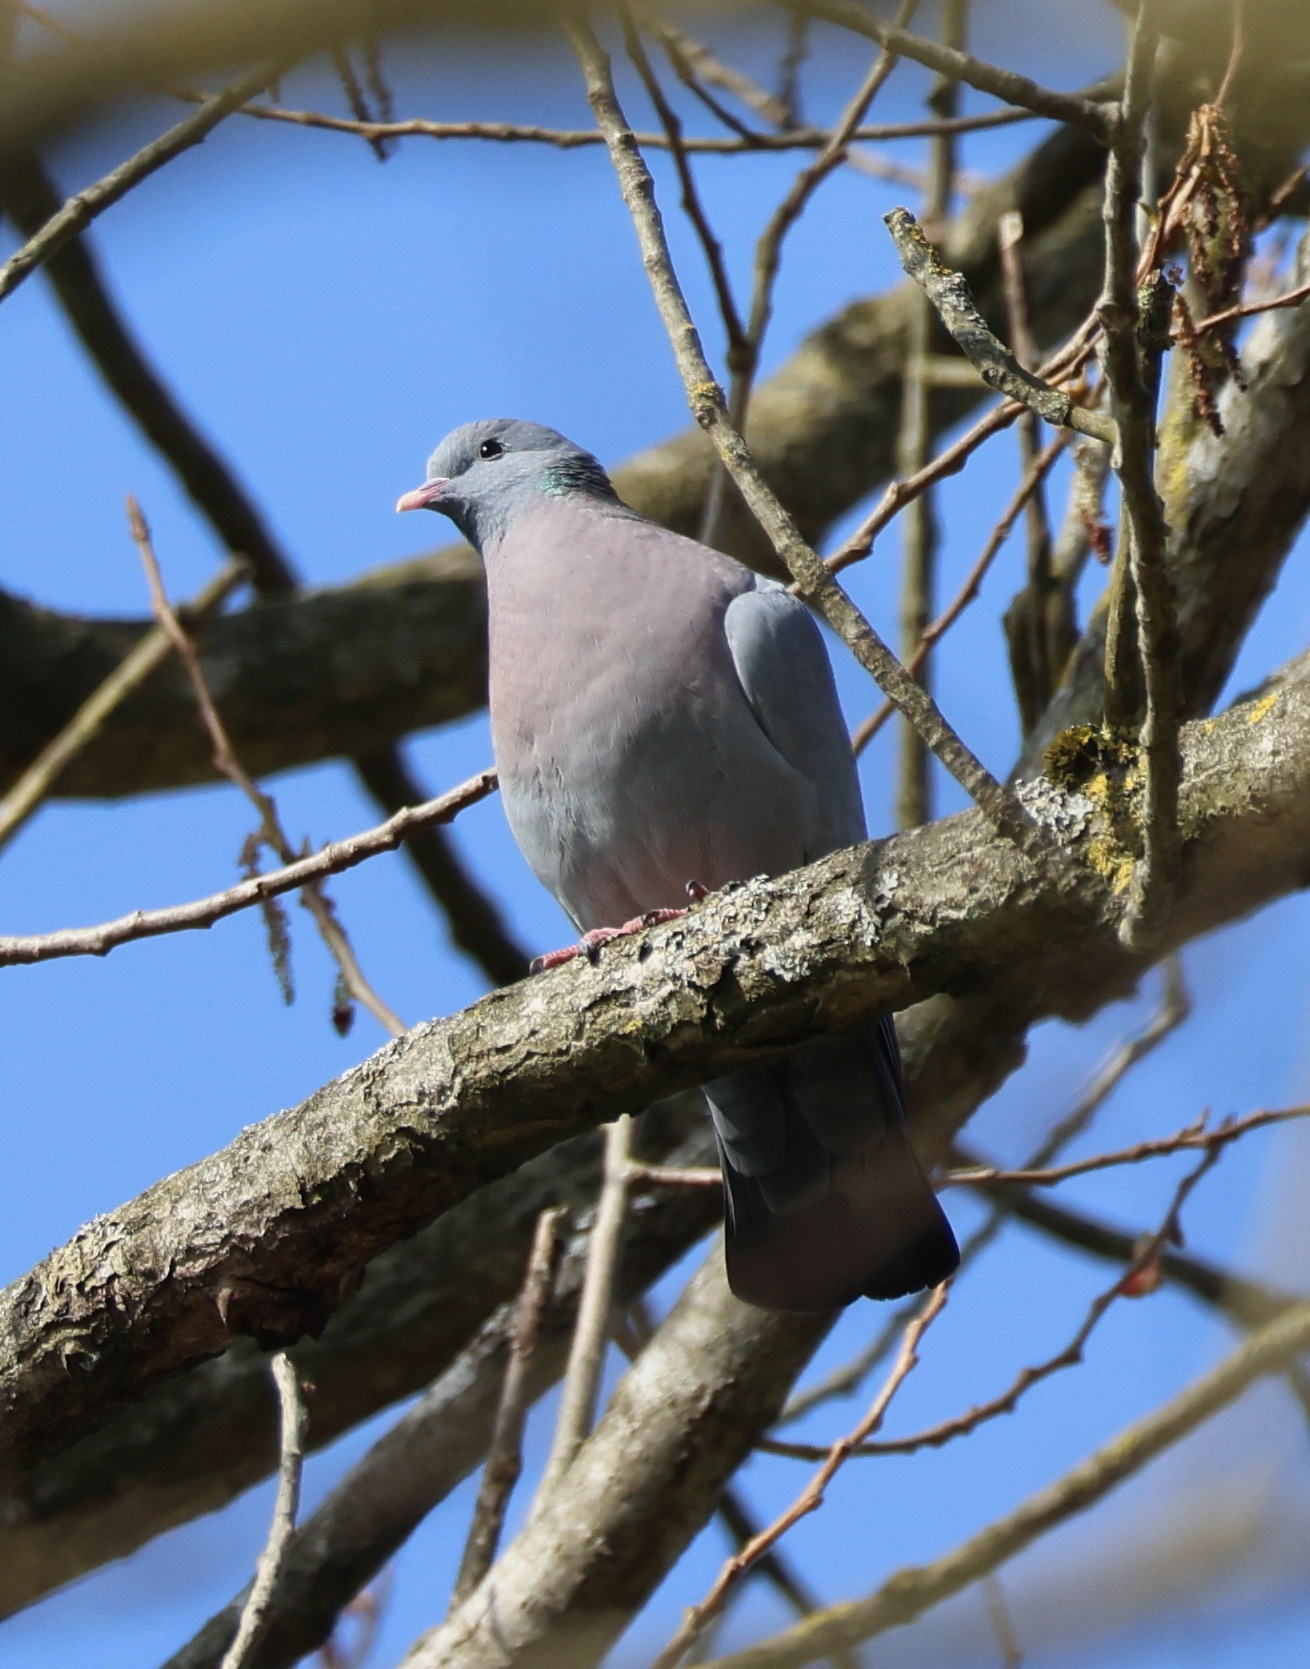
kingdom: Animalia
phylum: Chordata
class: Aves
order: Columbiformes
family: Columbidae
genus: Columba
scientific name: Columba oenas
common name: Stock dove
